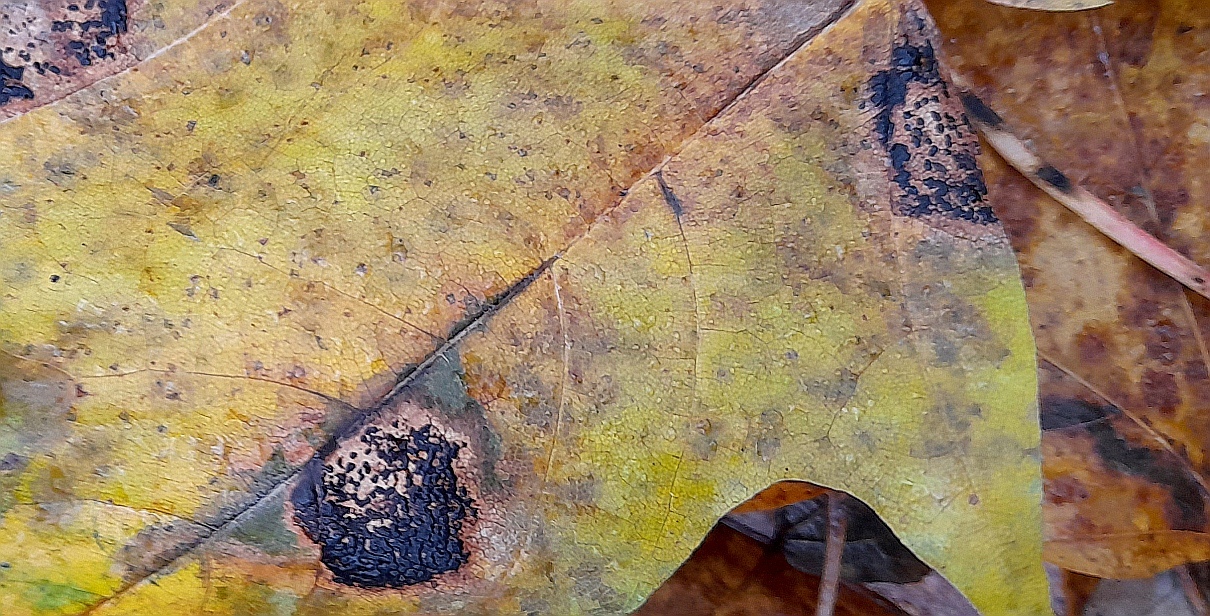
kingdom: Fungi
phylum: Ascomycota
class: Leotiomycetes
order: Rhytismatales
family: Rhytismataceae
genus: Rhytisma
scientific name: Rhytisma acerinum
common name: European tar spot
